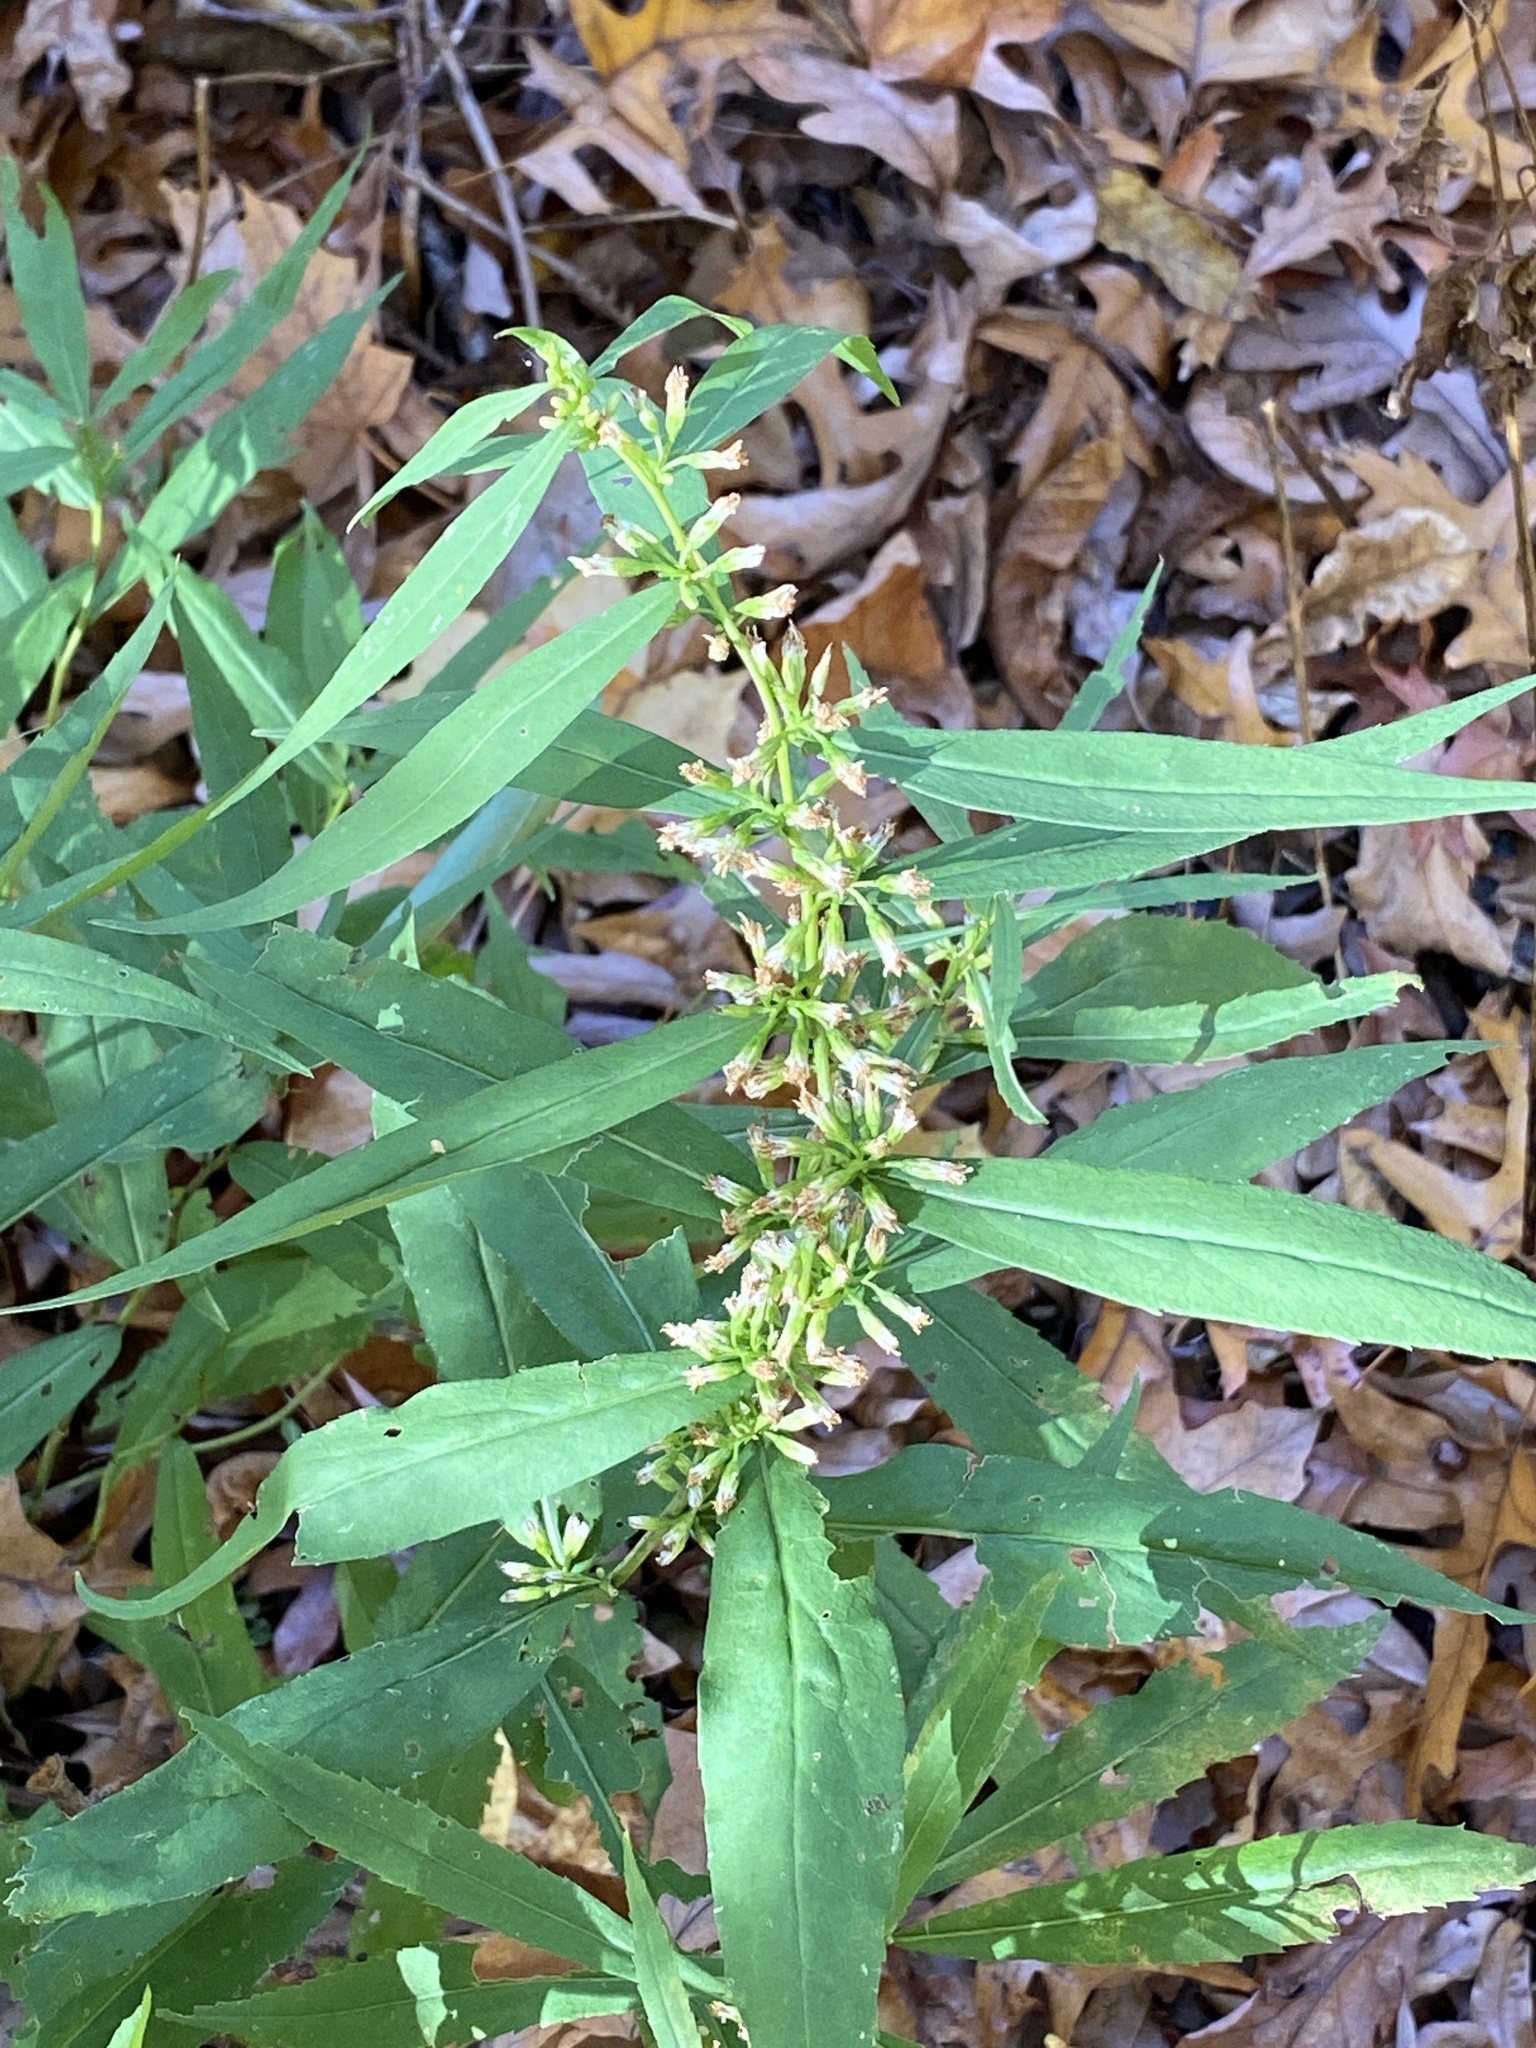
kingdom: Plantae
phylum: Tracheophyta
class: Magnoliopsida
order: Asterales
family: Asteraceae
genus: Solidago
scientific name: Solidago caesia
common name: Woodland goldenrod
